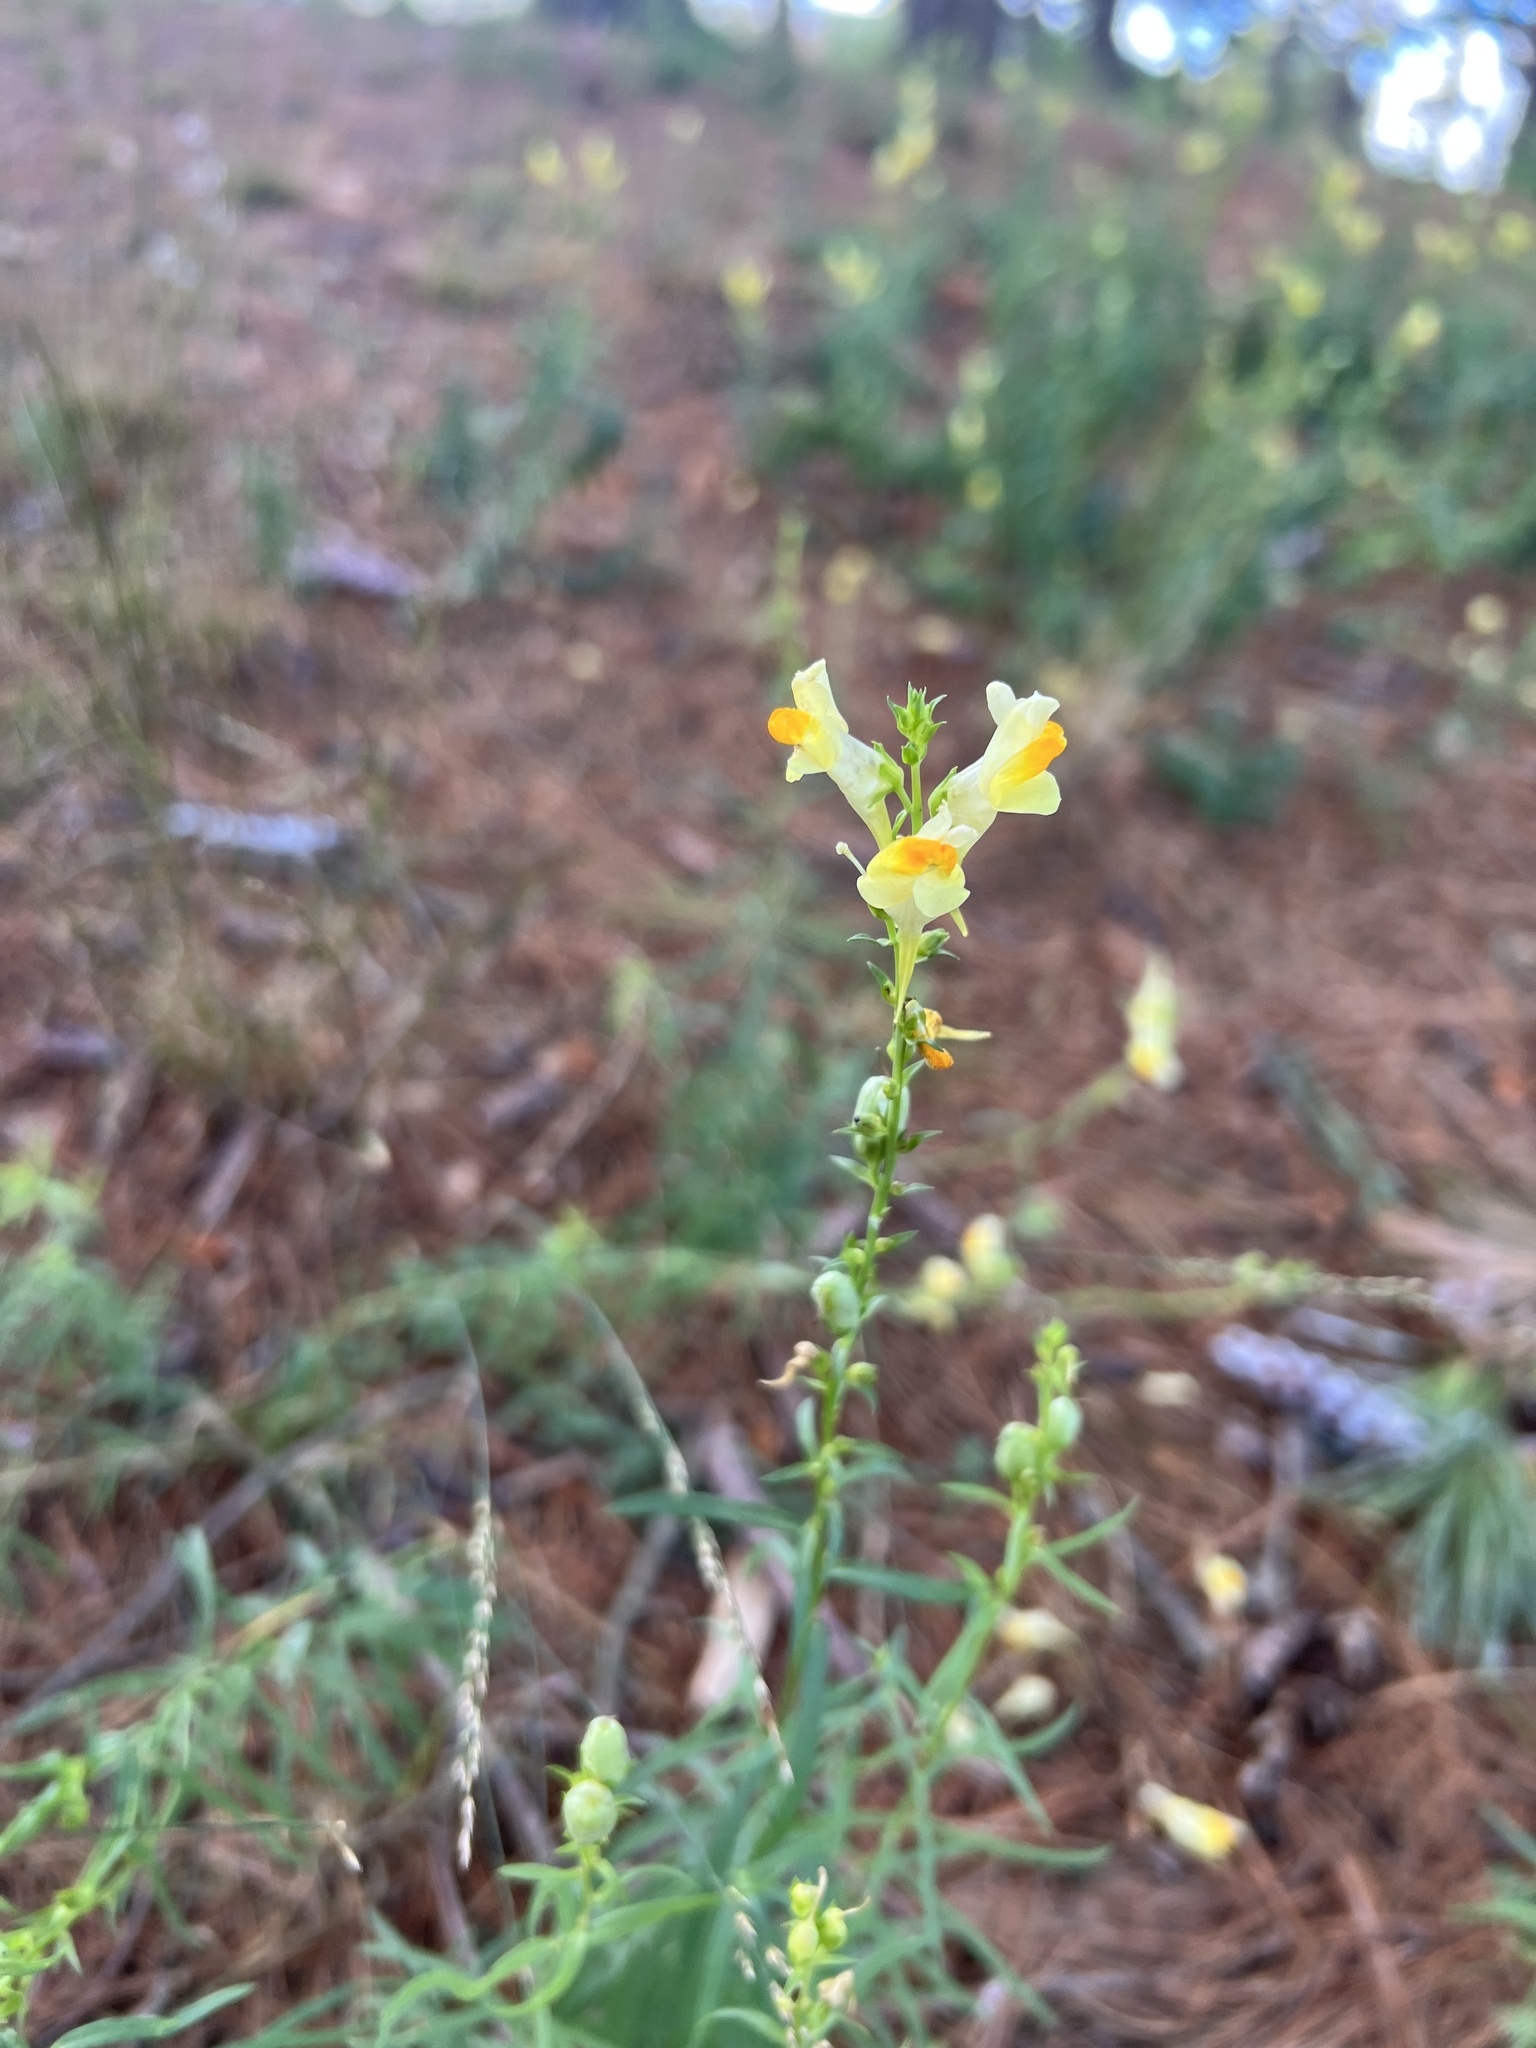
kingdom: Plantae
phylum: Tracheophyta
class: Magnoliopsida
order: Lamiales
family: Plantaginaceae
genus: Linaria
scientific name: Linaria vulgaris
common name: Butter and eggs
